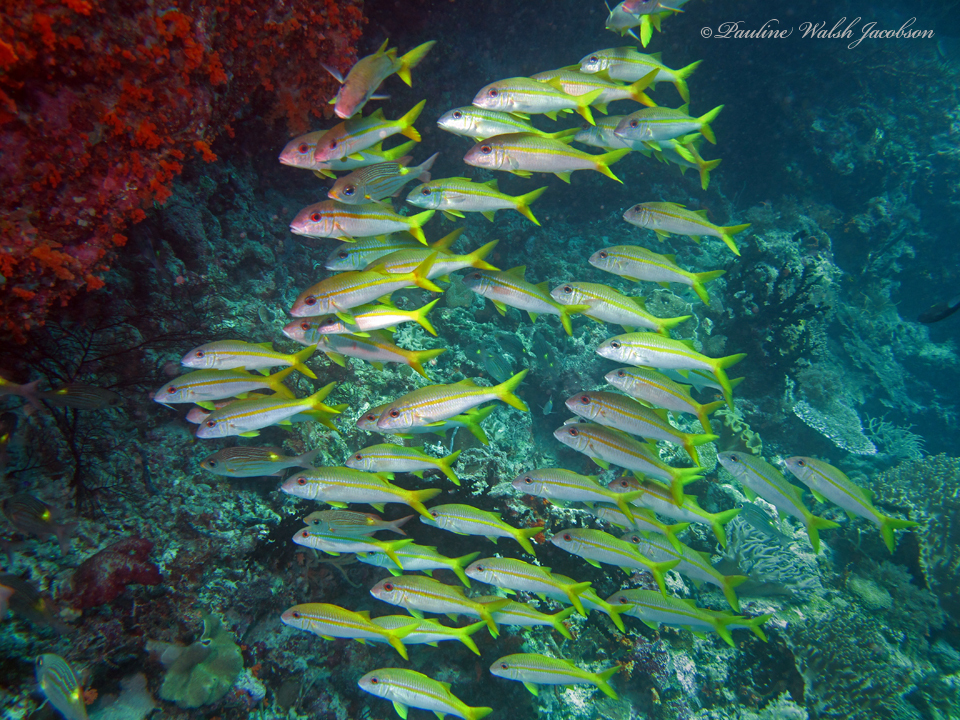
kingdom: Animalia
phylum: Chordata
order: Perciformes
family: Mullidae
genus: Mulloidichthys
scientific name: Mulloidichthys vanicolensis
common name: Yellowfin goatfish
